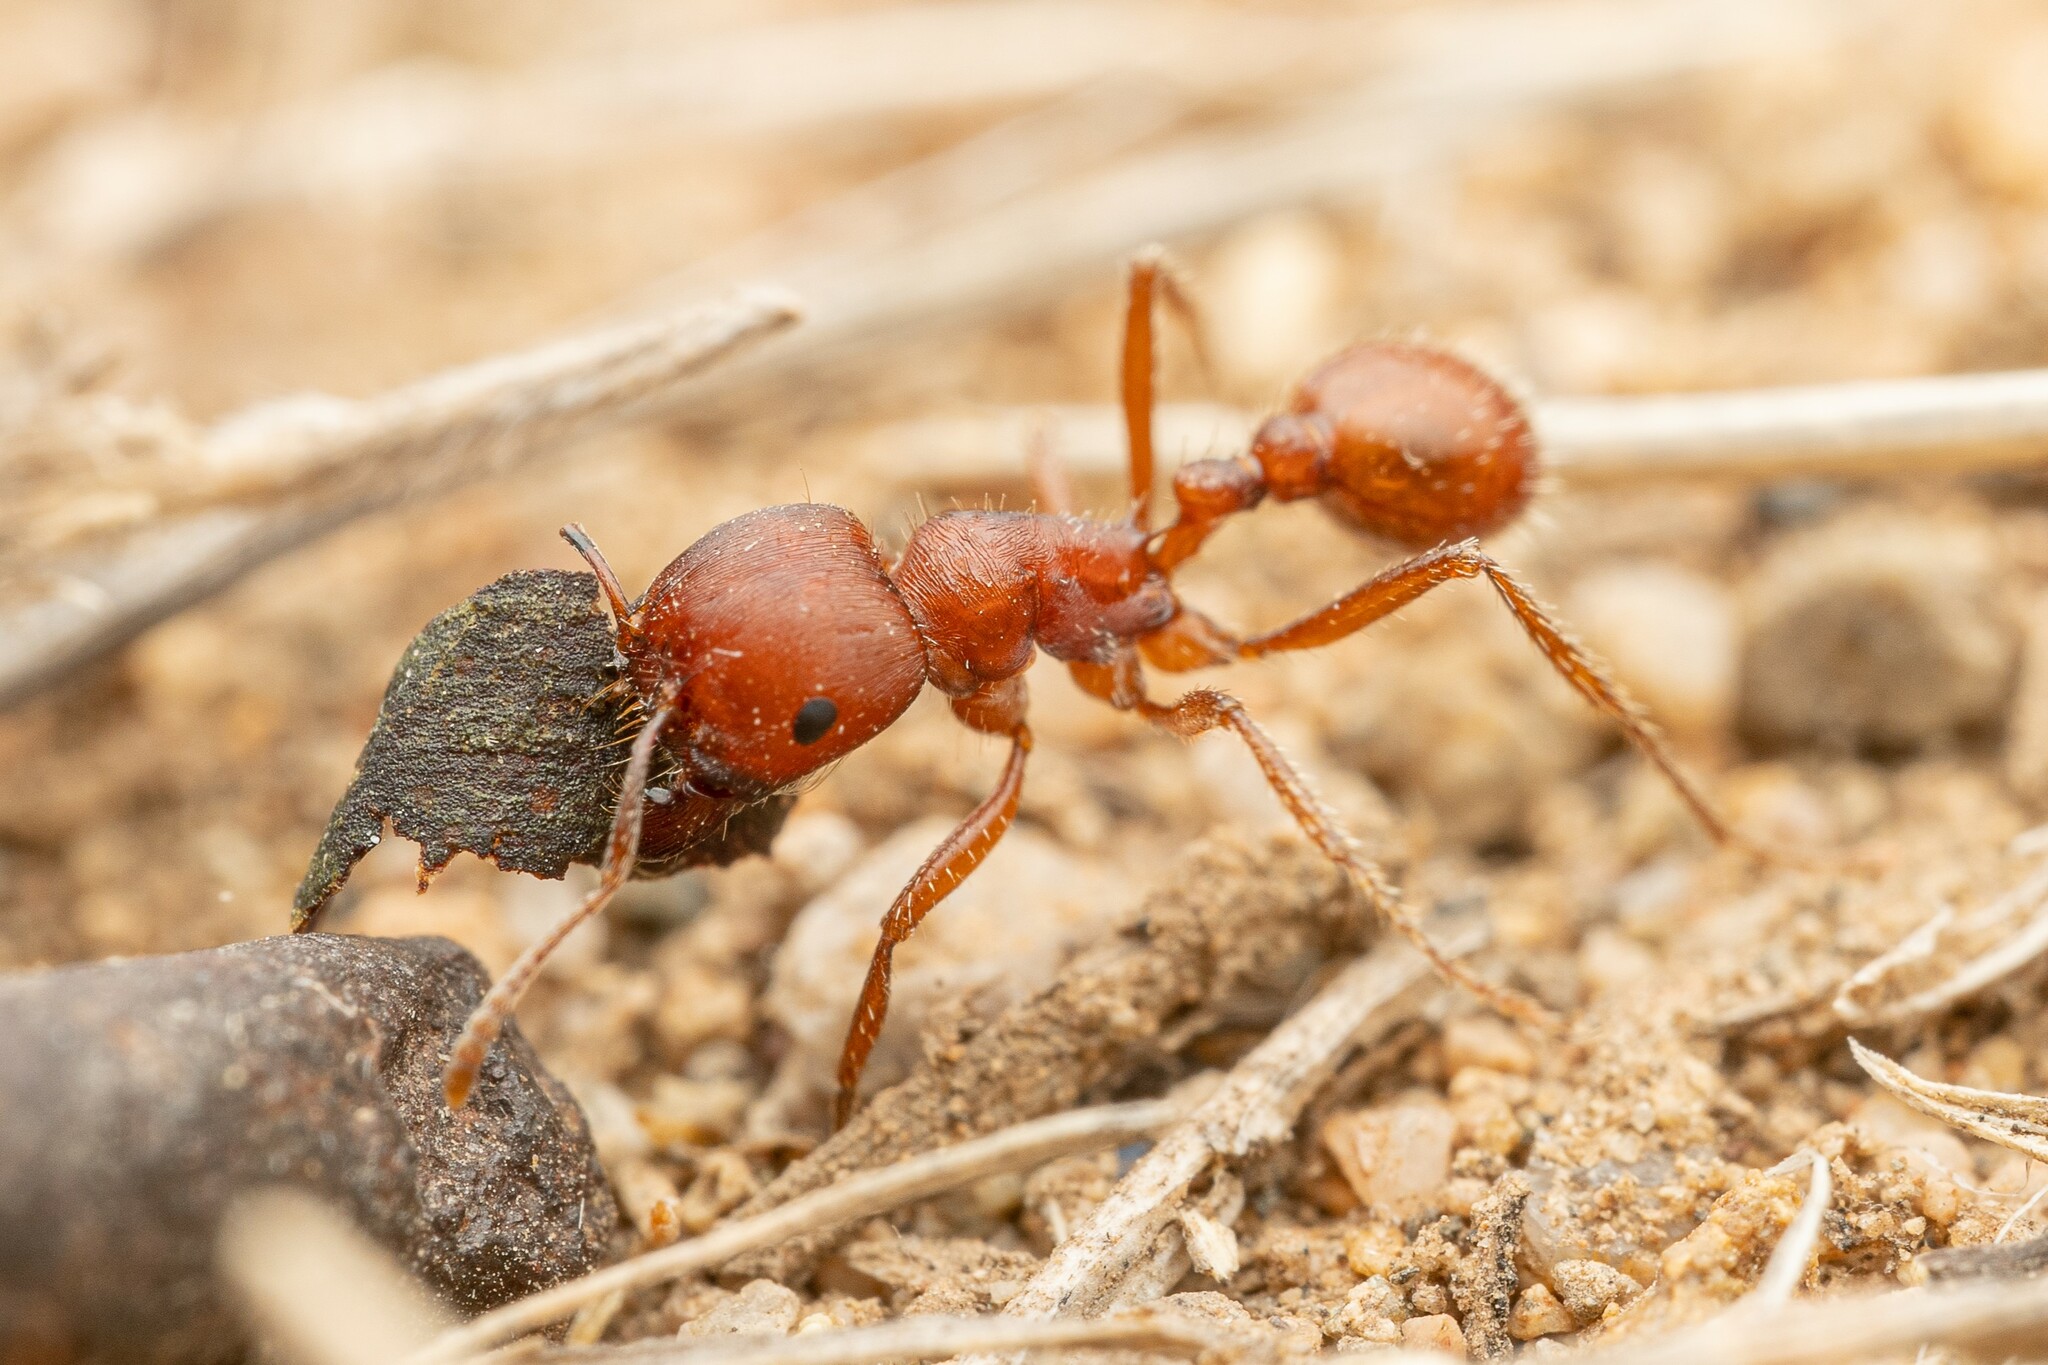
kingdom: Animalia
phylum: Arthropoda
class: Insecta
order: Hymenoptera
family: Formicidae
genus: Pogonomyrmex
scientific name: Pogonomyrmex barbatus
